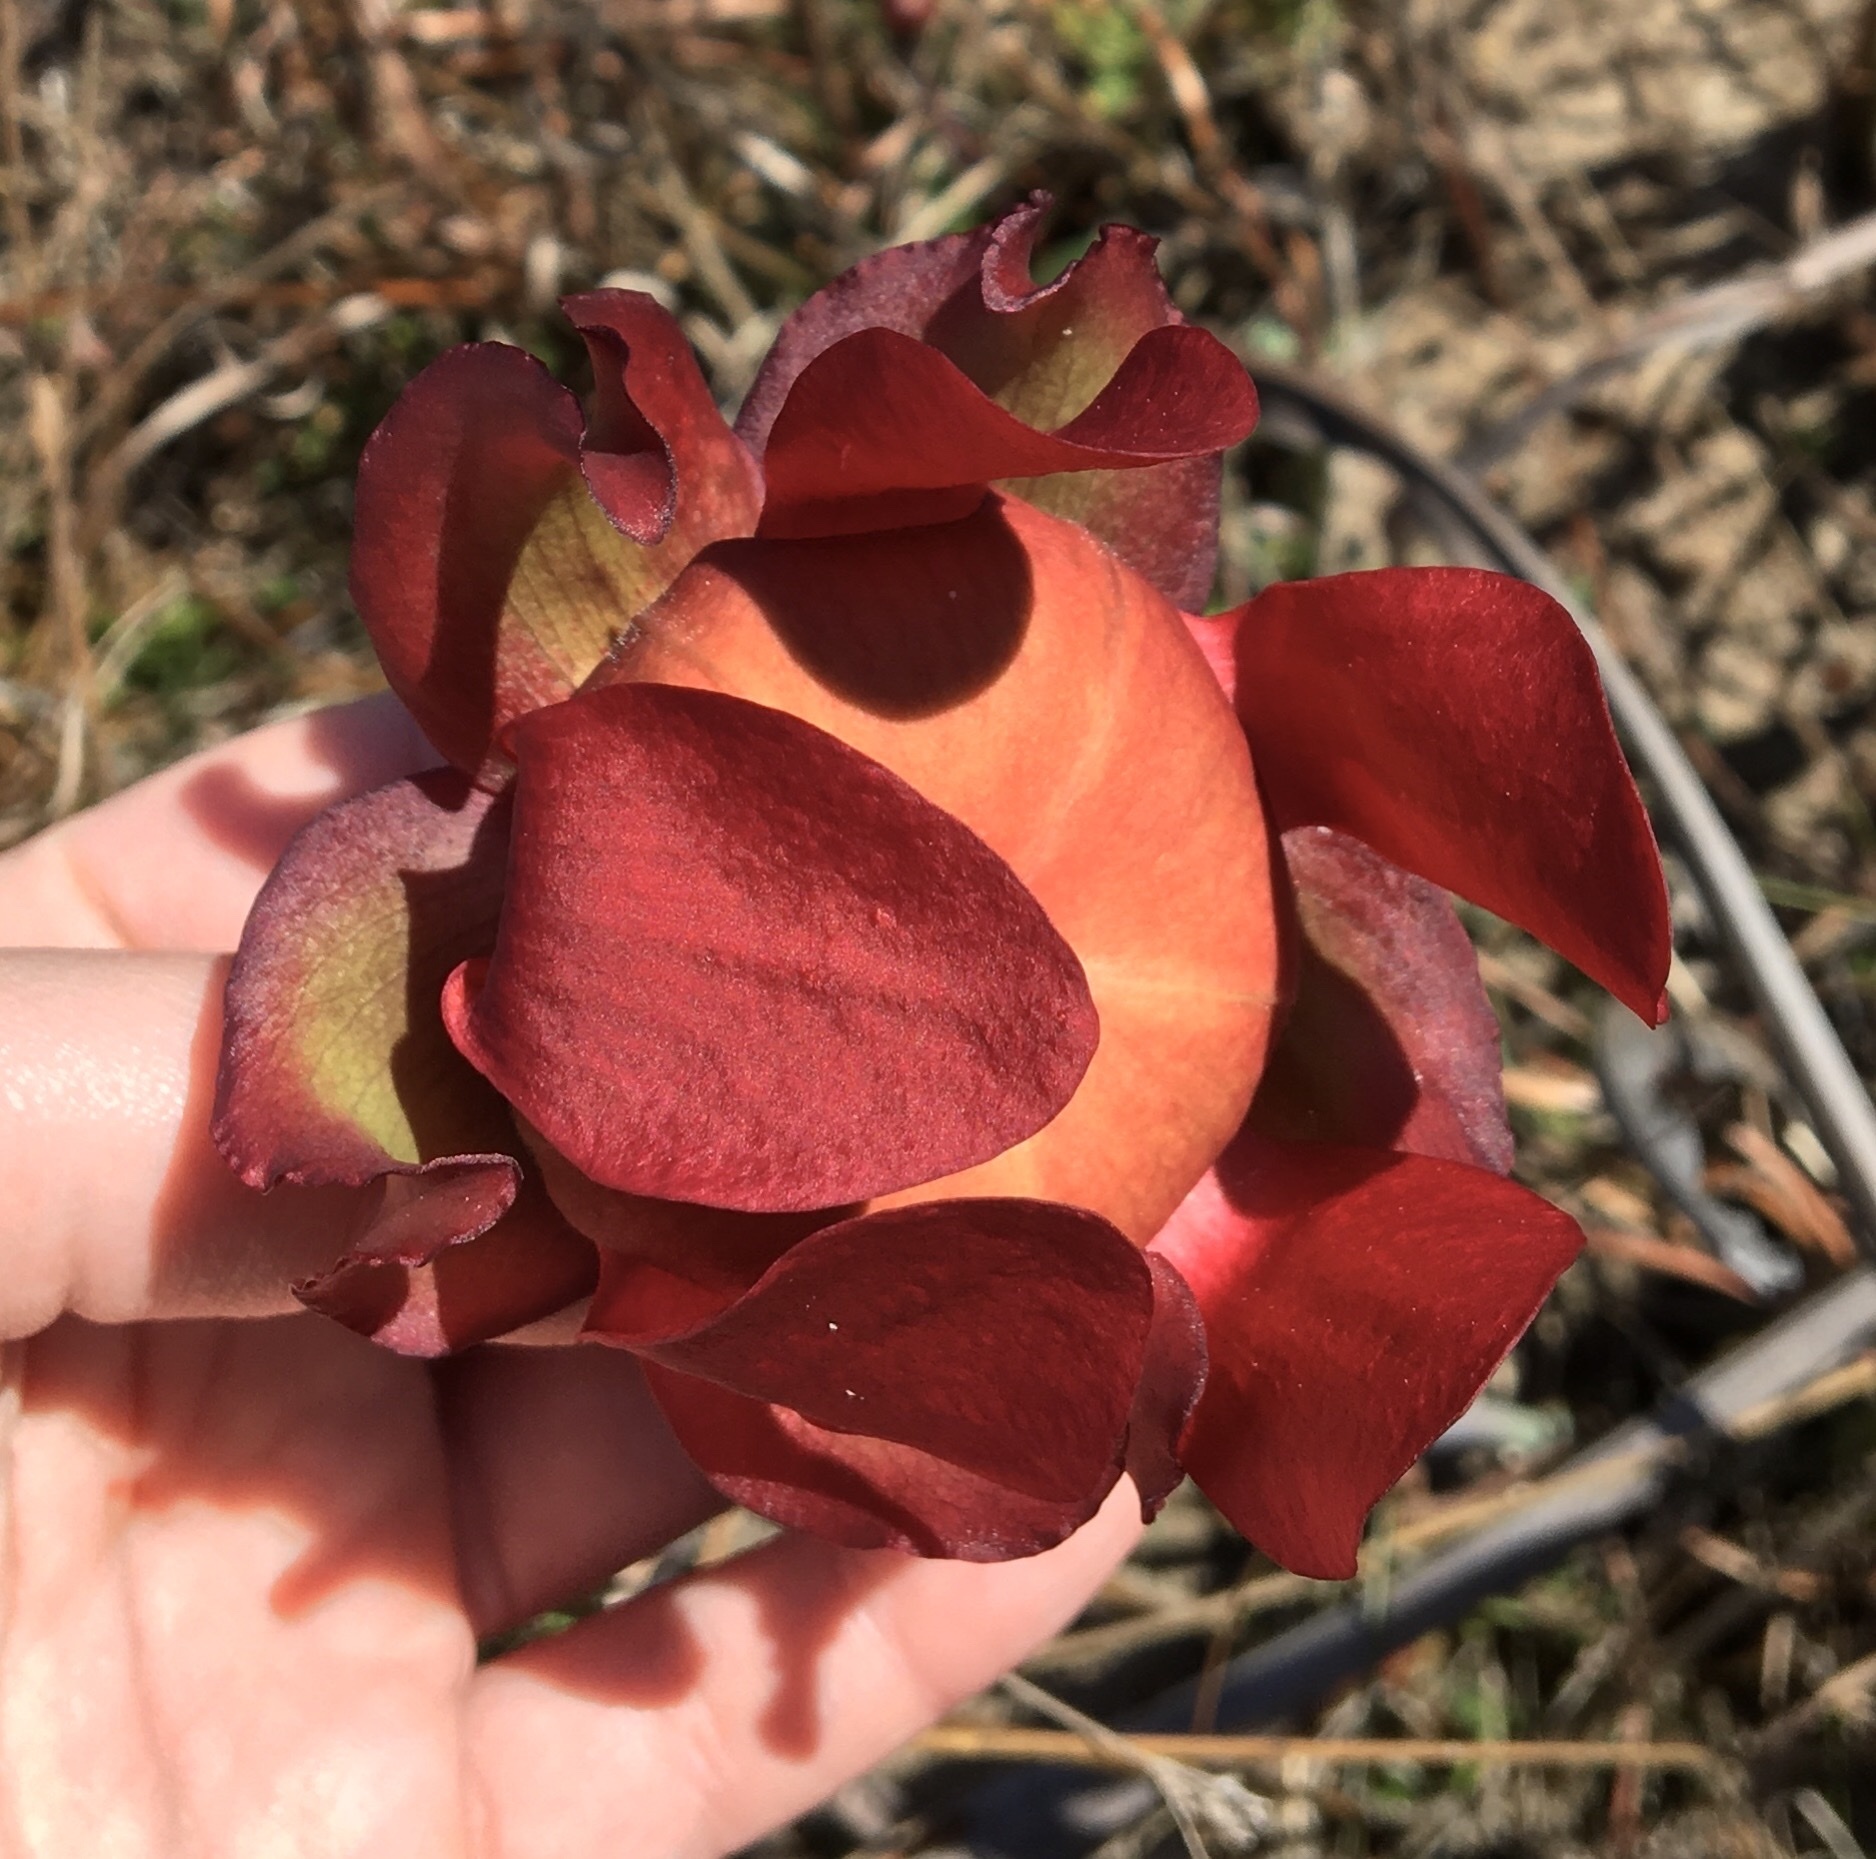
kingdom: Plantae
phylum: Tracheophyta
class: Magnoliopsida
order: Ericales
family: Sarraceniaceae
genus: Sarracenia
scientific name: Sarracenia leucophylla
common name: Purple trumpetleaf
